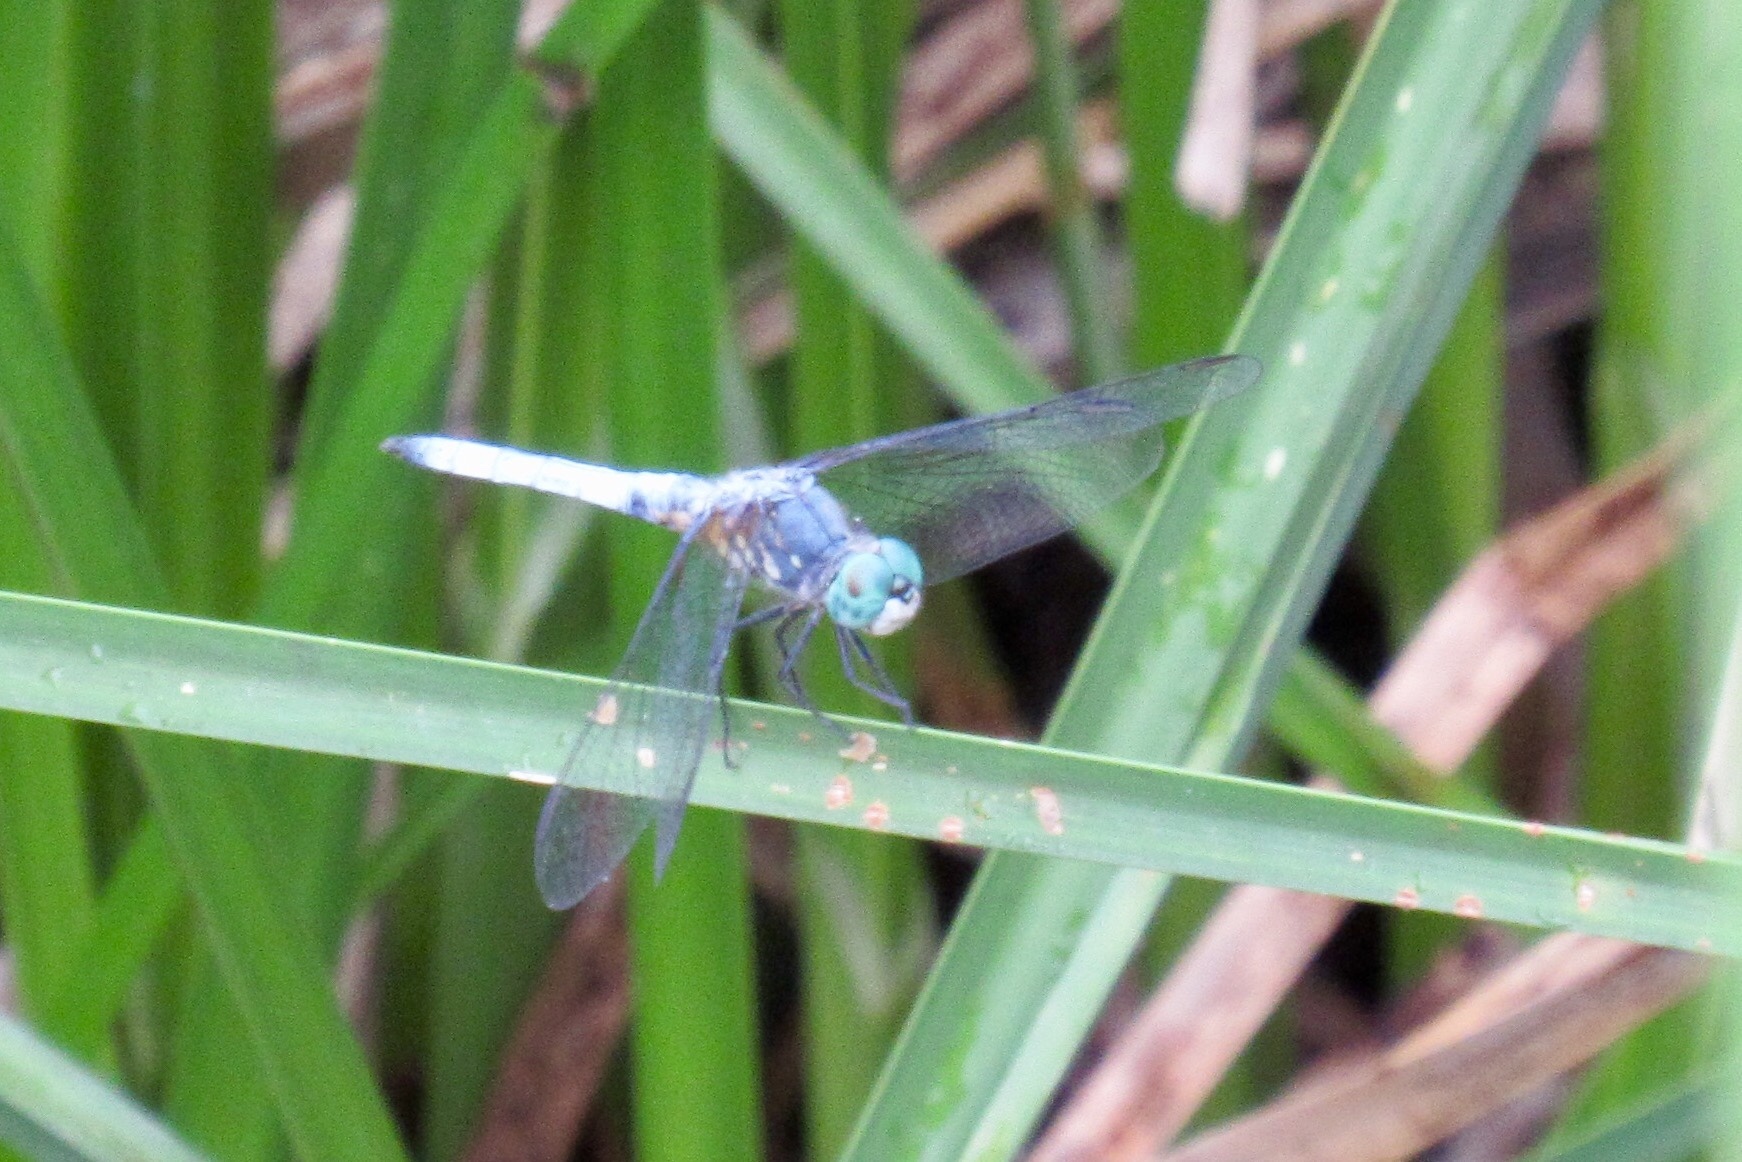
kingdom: Animalia
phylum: Arthropoda
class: Insecta
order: Odonata
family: Libellulidae
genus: Pachydiplax
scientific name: Pachydiplax longipennis
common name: Blue dasher
